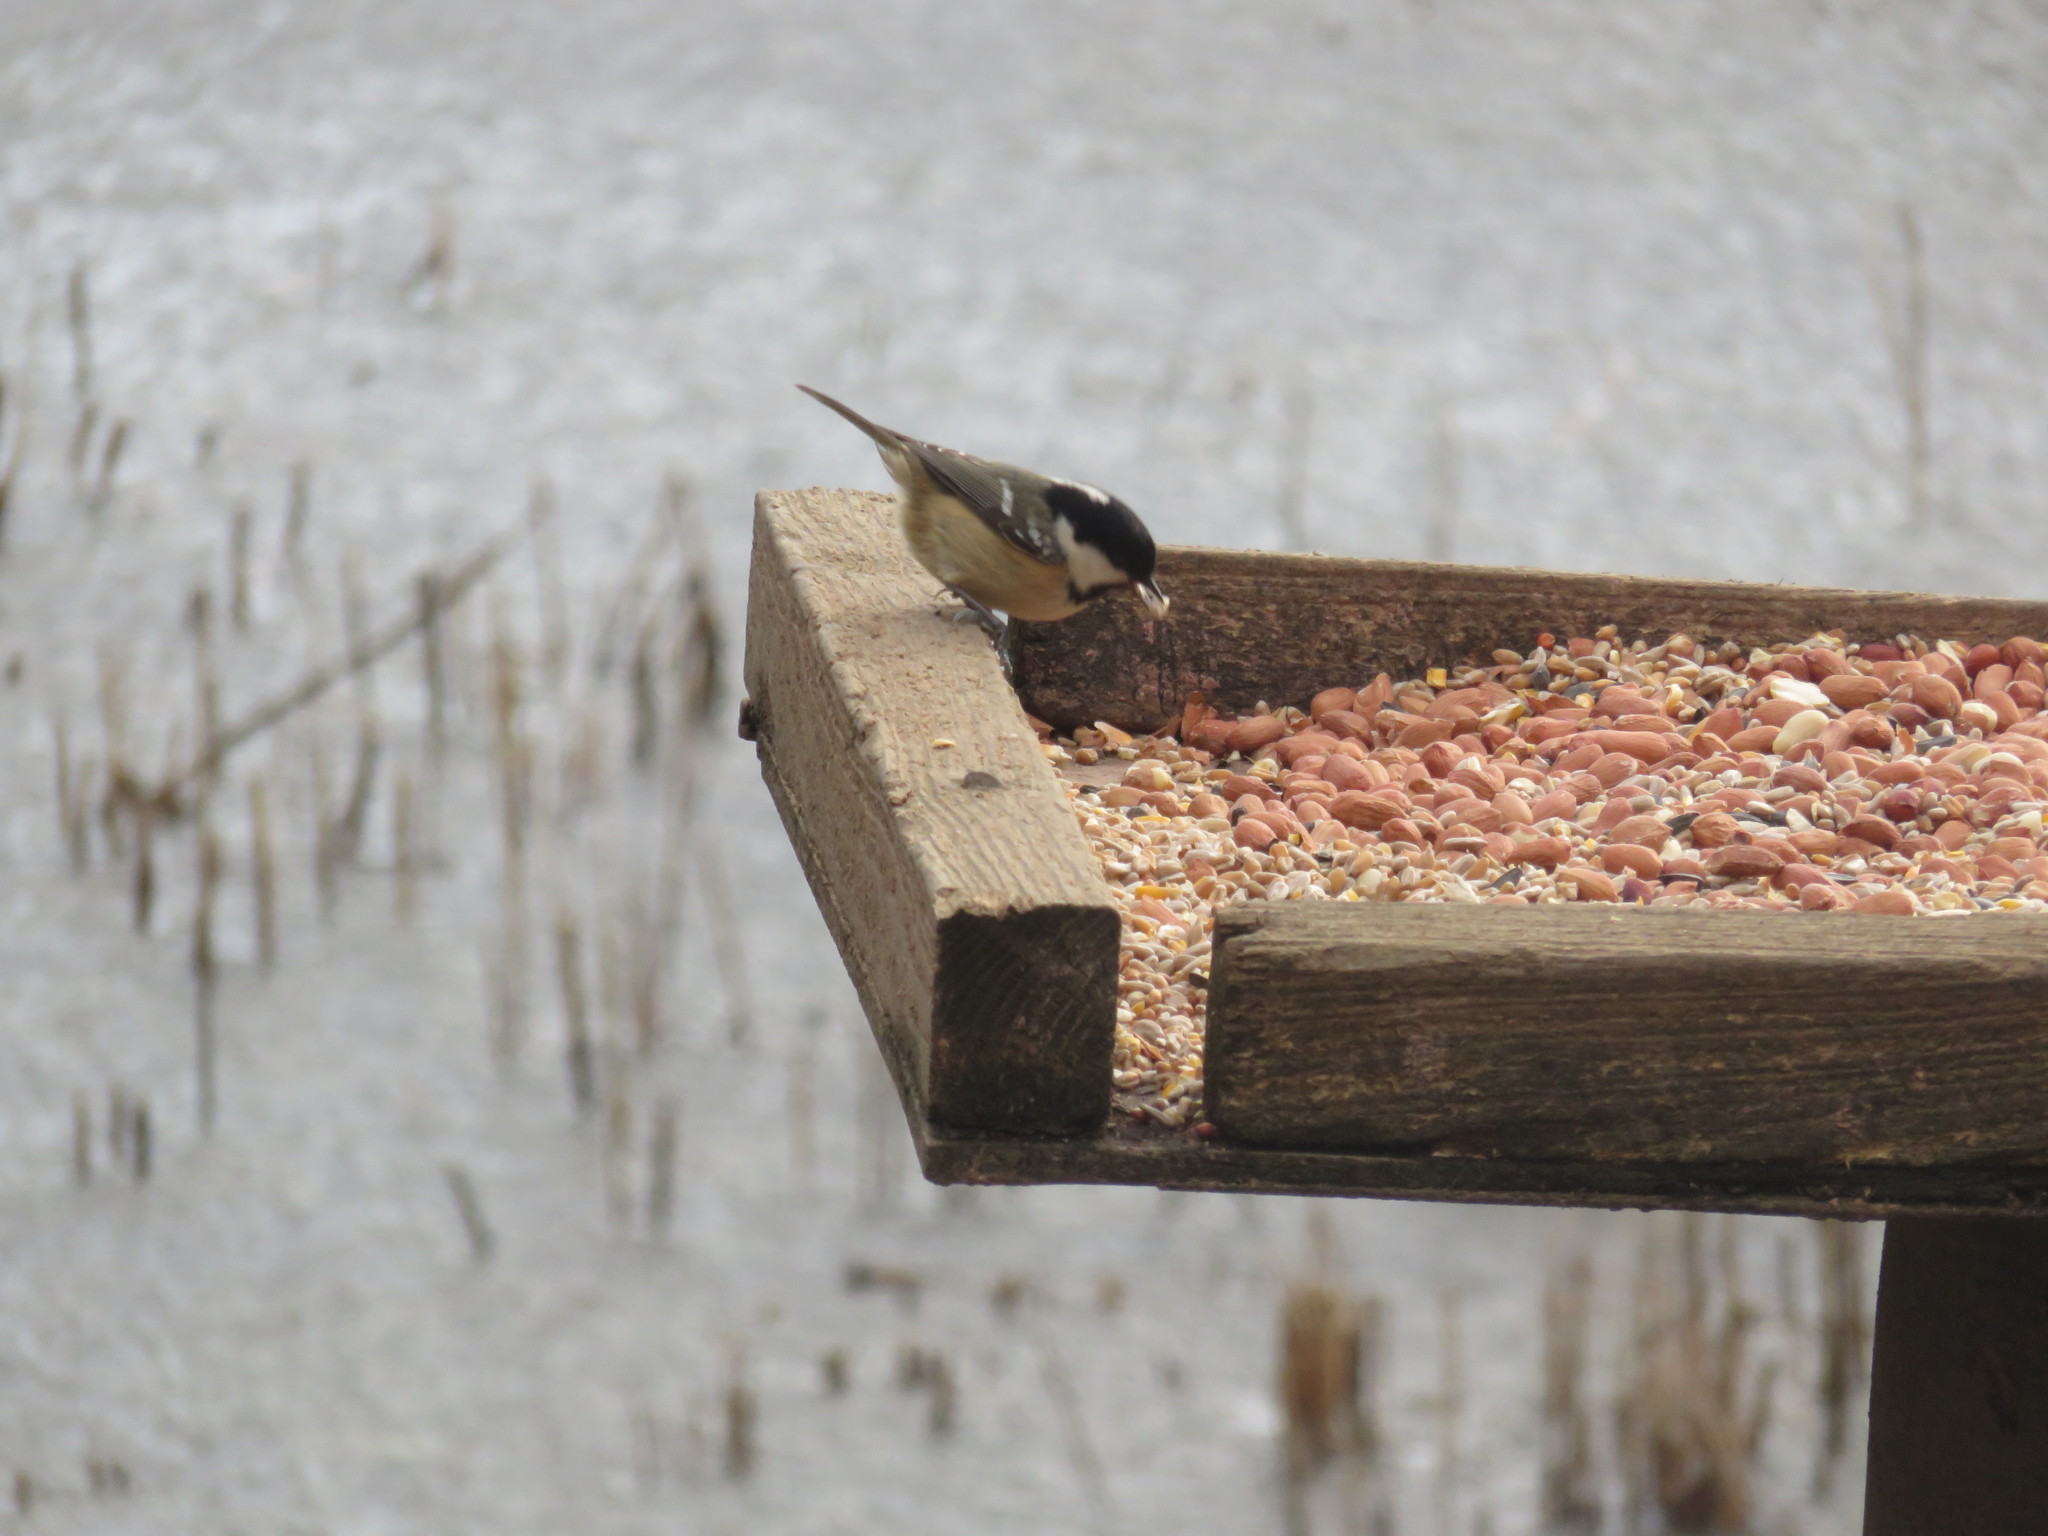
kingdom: Animalia
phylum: Chordata
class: Aves
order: Passeriformes
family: Paridae
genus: Periparus
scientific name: Periparus ater
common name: Coal tit
